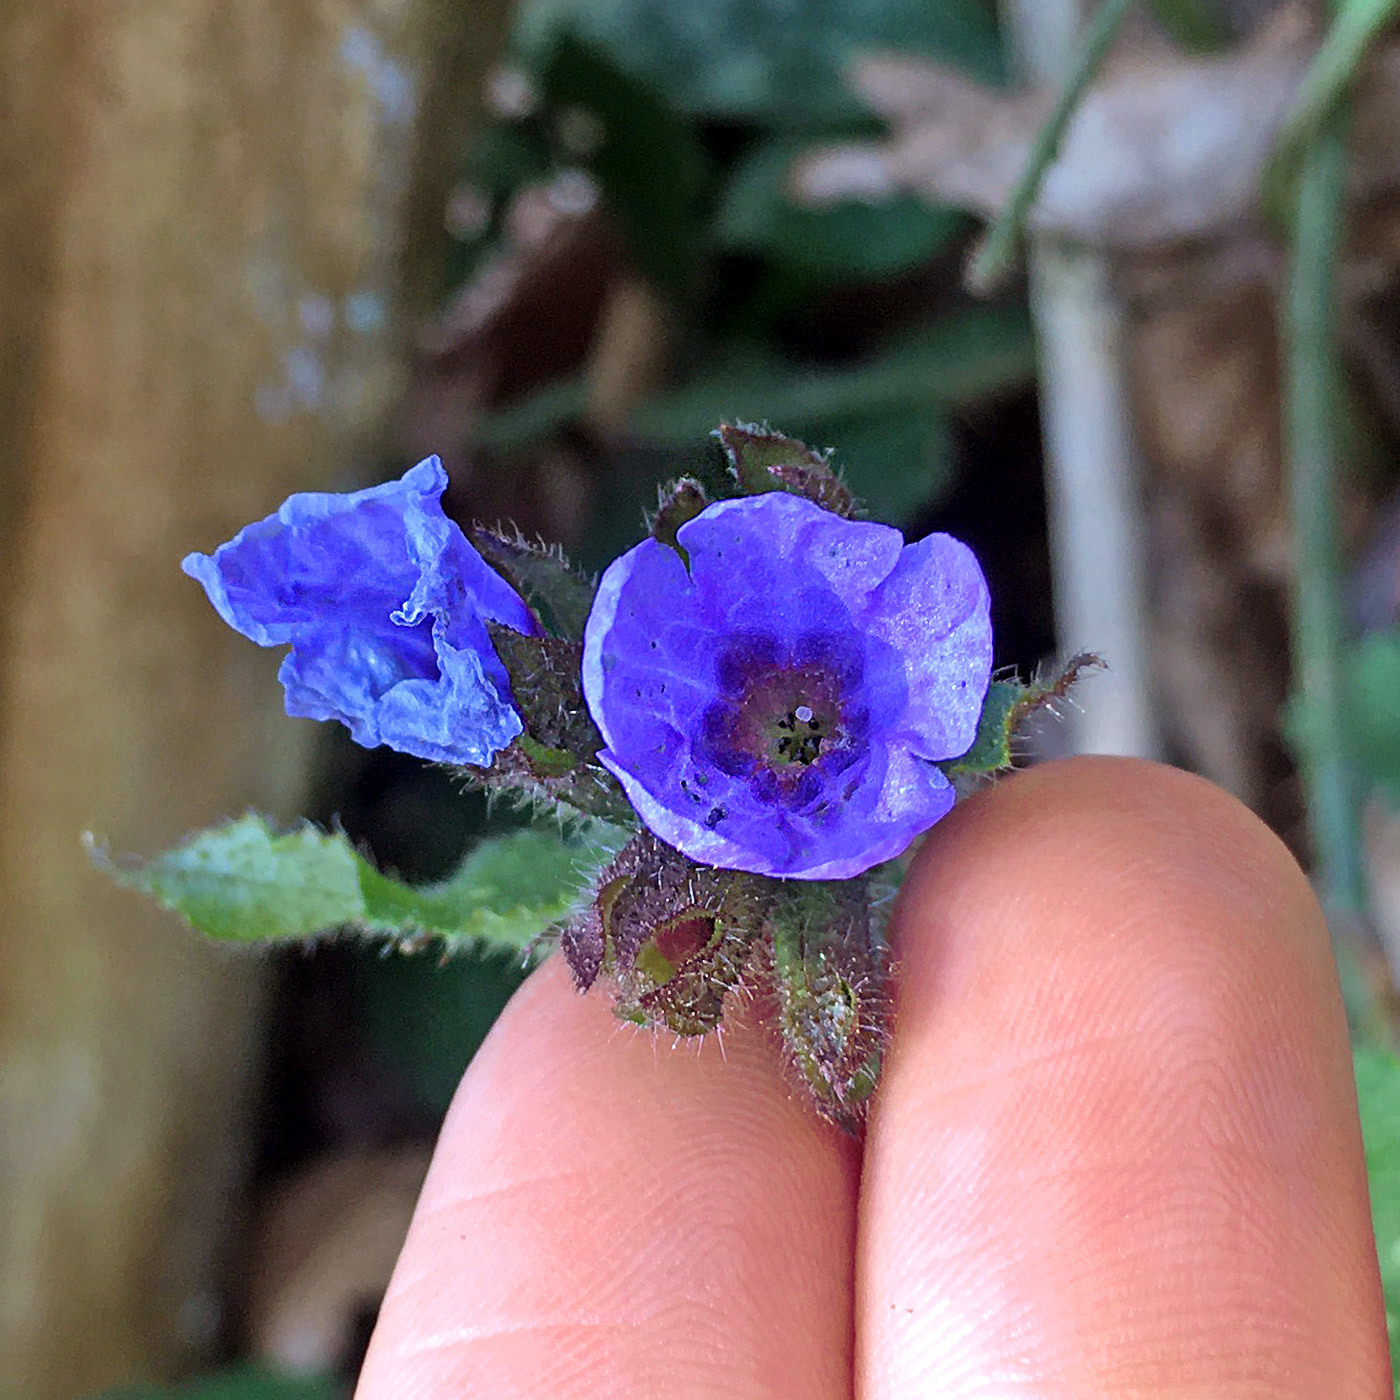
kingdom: Plantae
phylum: Tracheophyta
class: Magnoliopsida
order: Boraginales
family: Boraginaceae
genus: Pulmonaria
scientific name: Pulmonaria officinalis
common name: Lungwort
